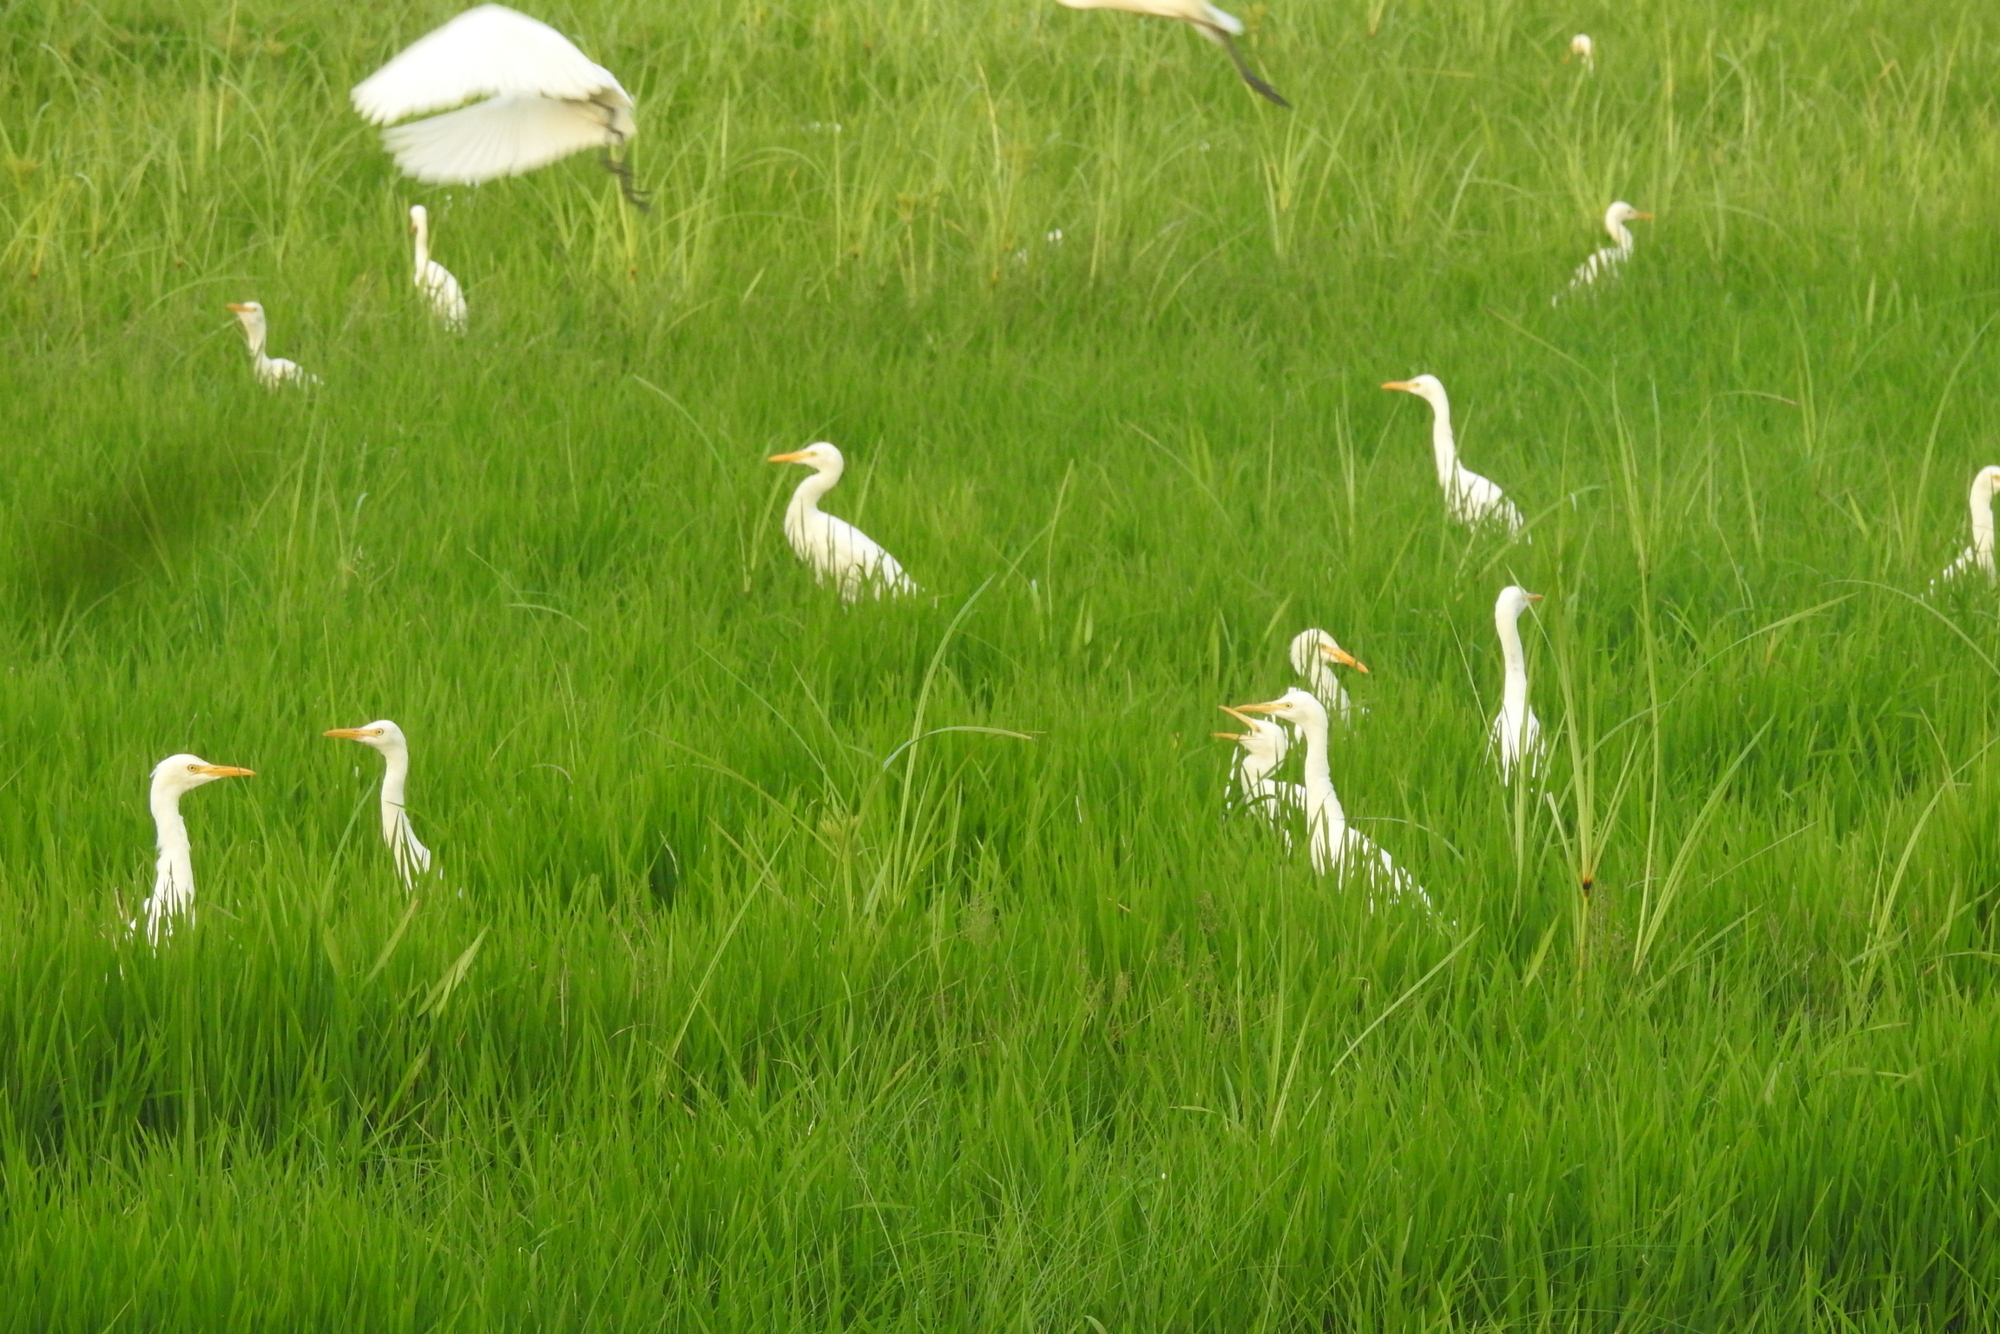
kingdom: Animalia
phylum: Chordata
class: Aves
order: Pelecaniformes
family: Ardeidae
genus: Bubulcus
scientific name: Bubulcus coromandus
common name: Eastern cattle egret
